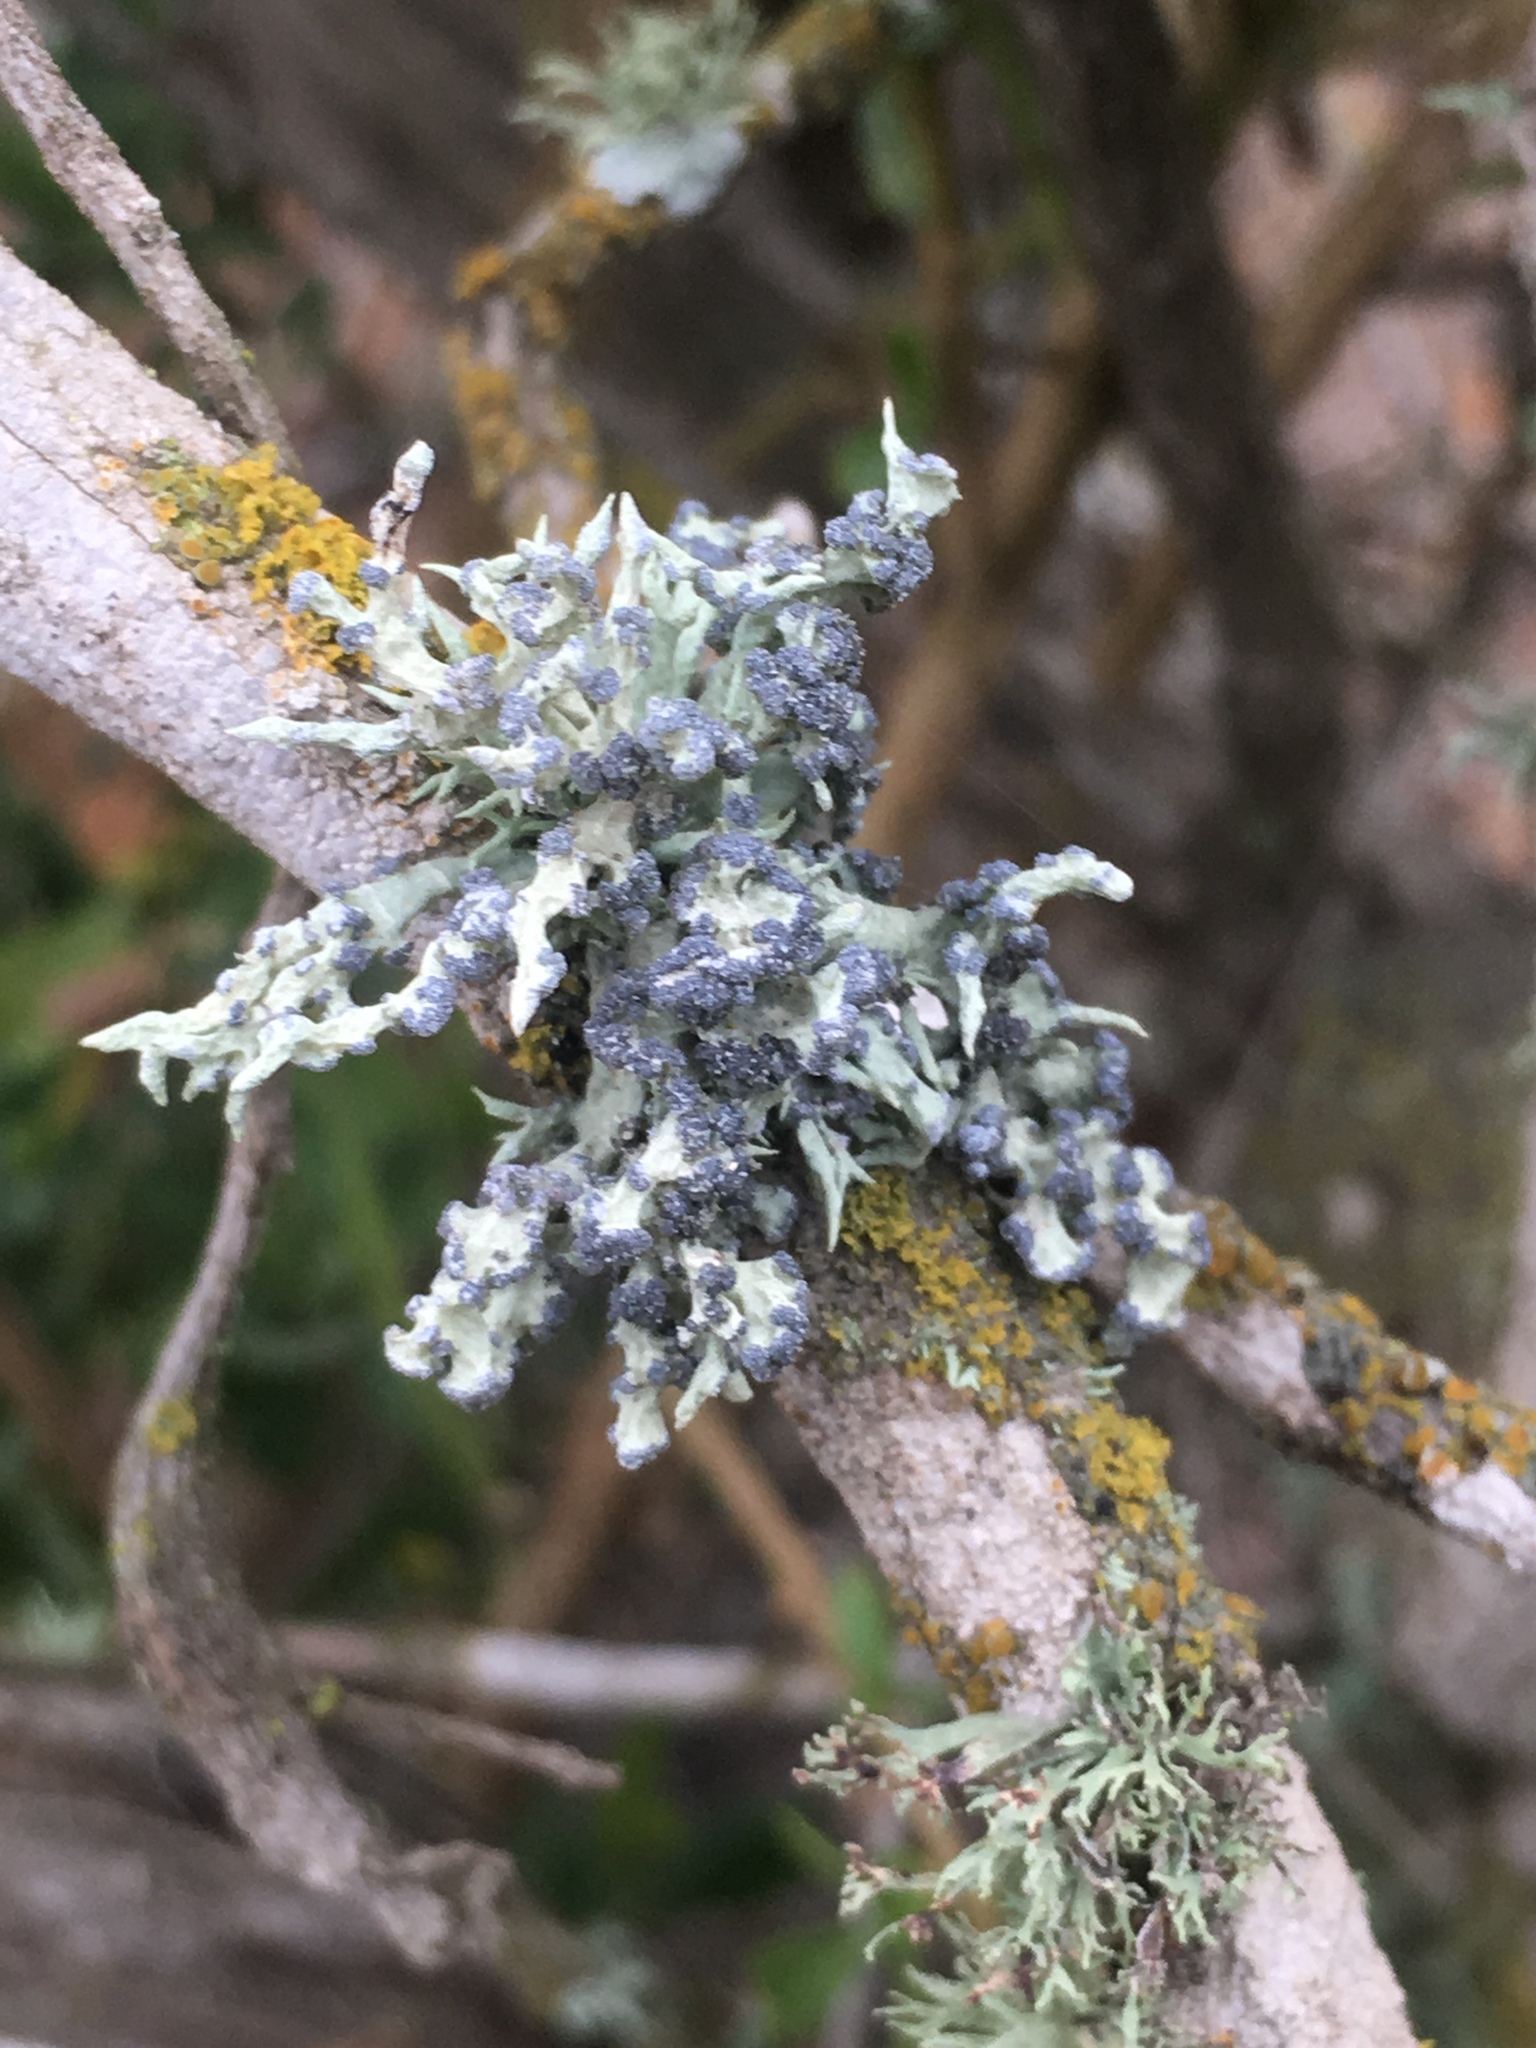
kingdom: Fungi
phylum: Ascomycota
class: Lecanoromycetes
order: Lecanorales
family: Ramalinaceae
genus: Niebla
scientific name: Niebla cephalota
